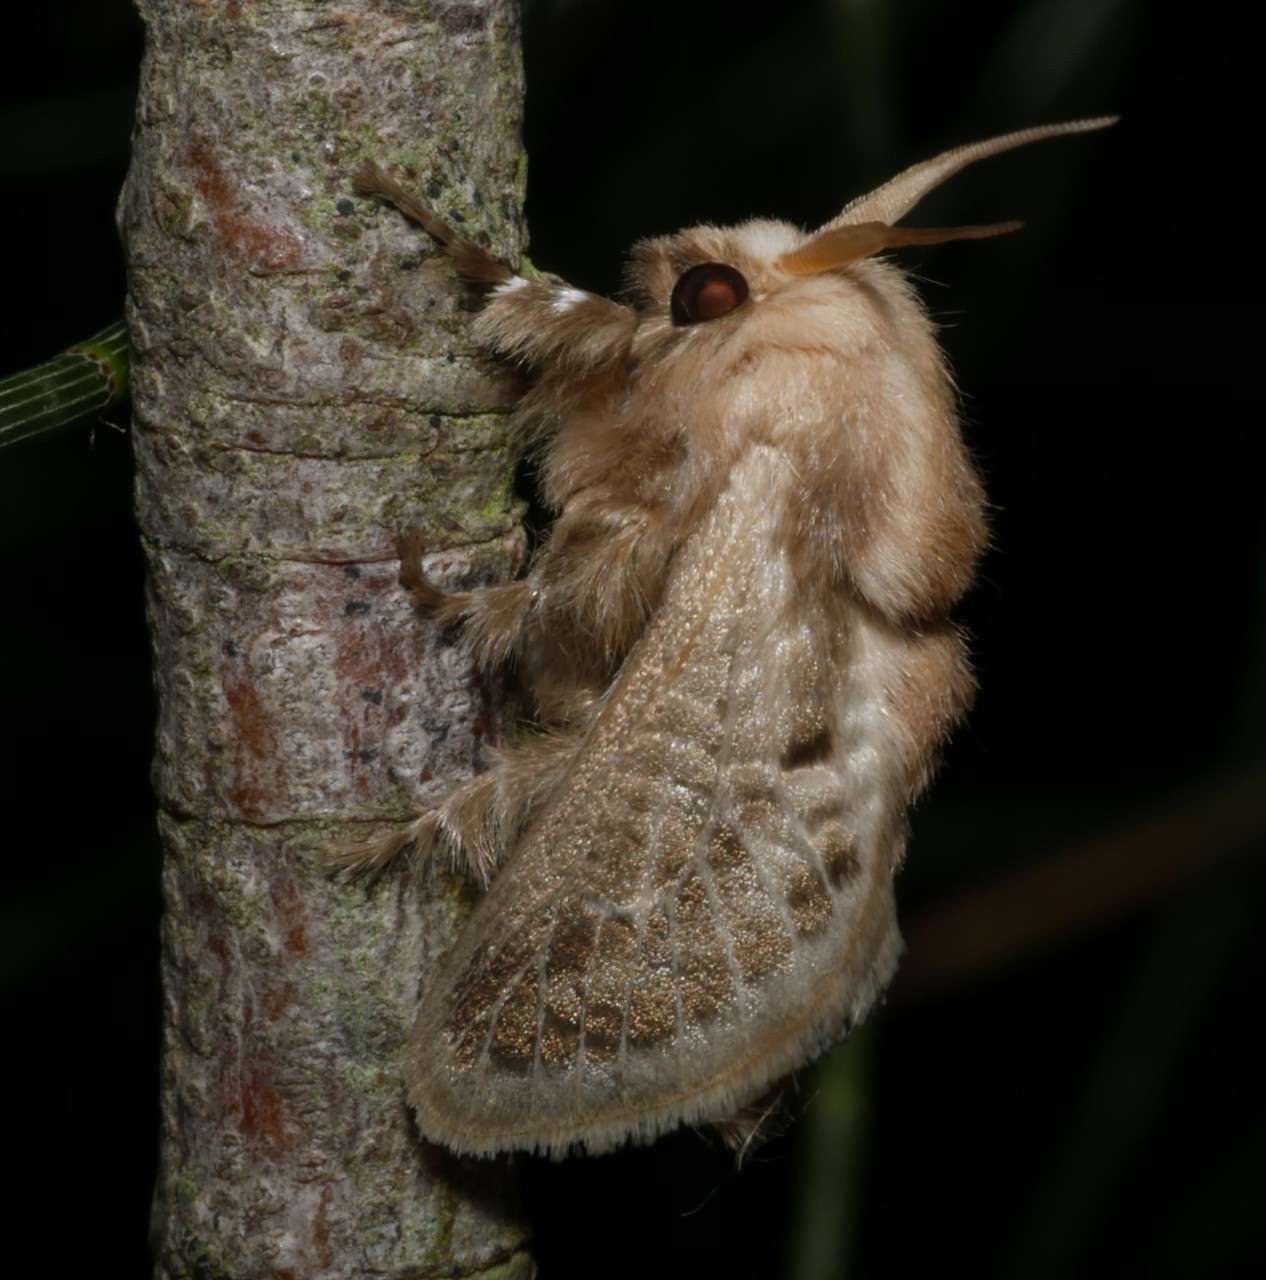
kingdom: Animalia
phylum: Arthropoda
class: Insecta
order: Lepidoptera
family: Limacodidae
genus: Doratifera
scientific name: Doratifera pinguis
